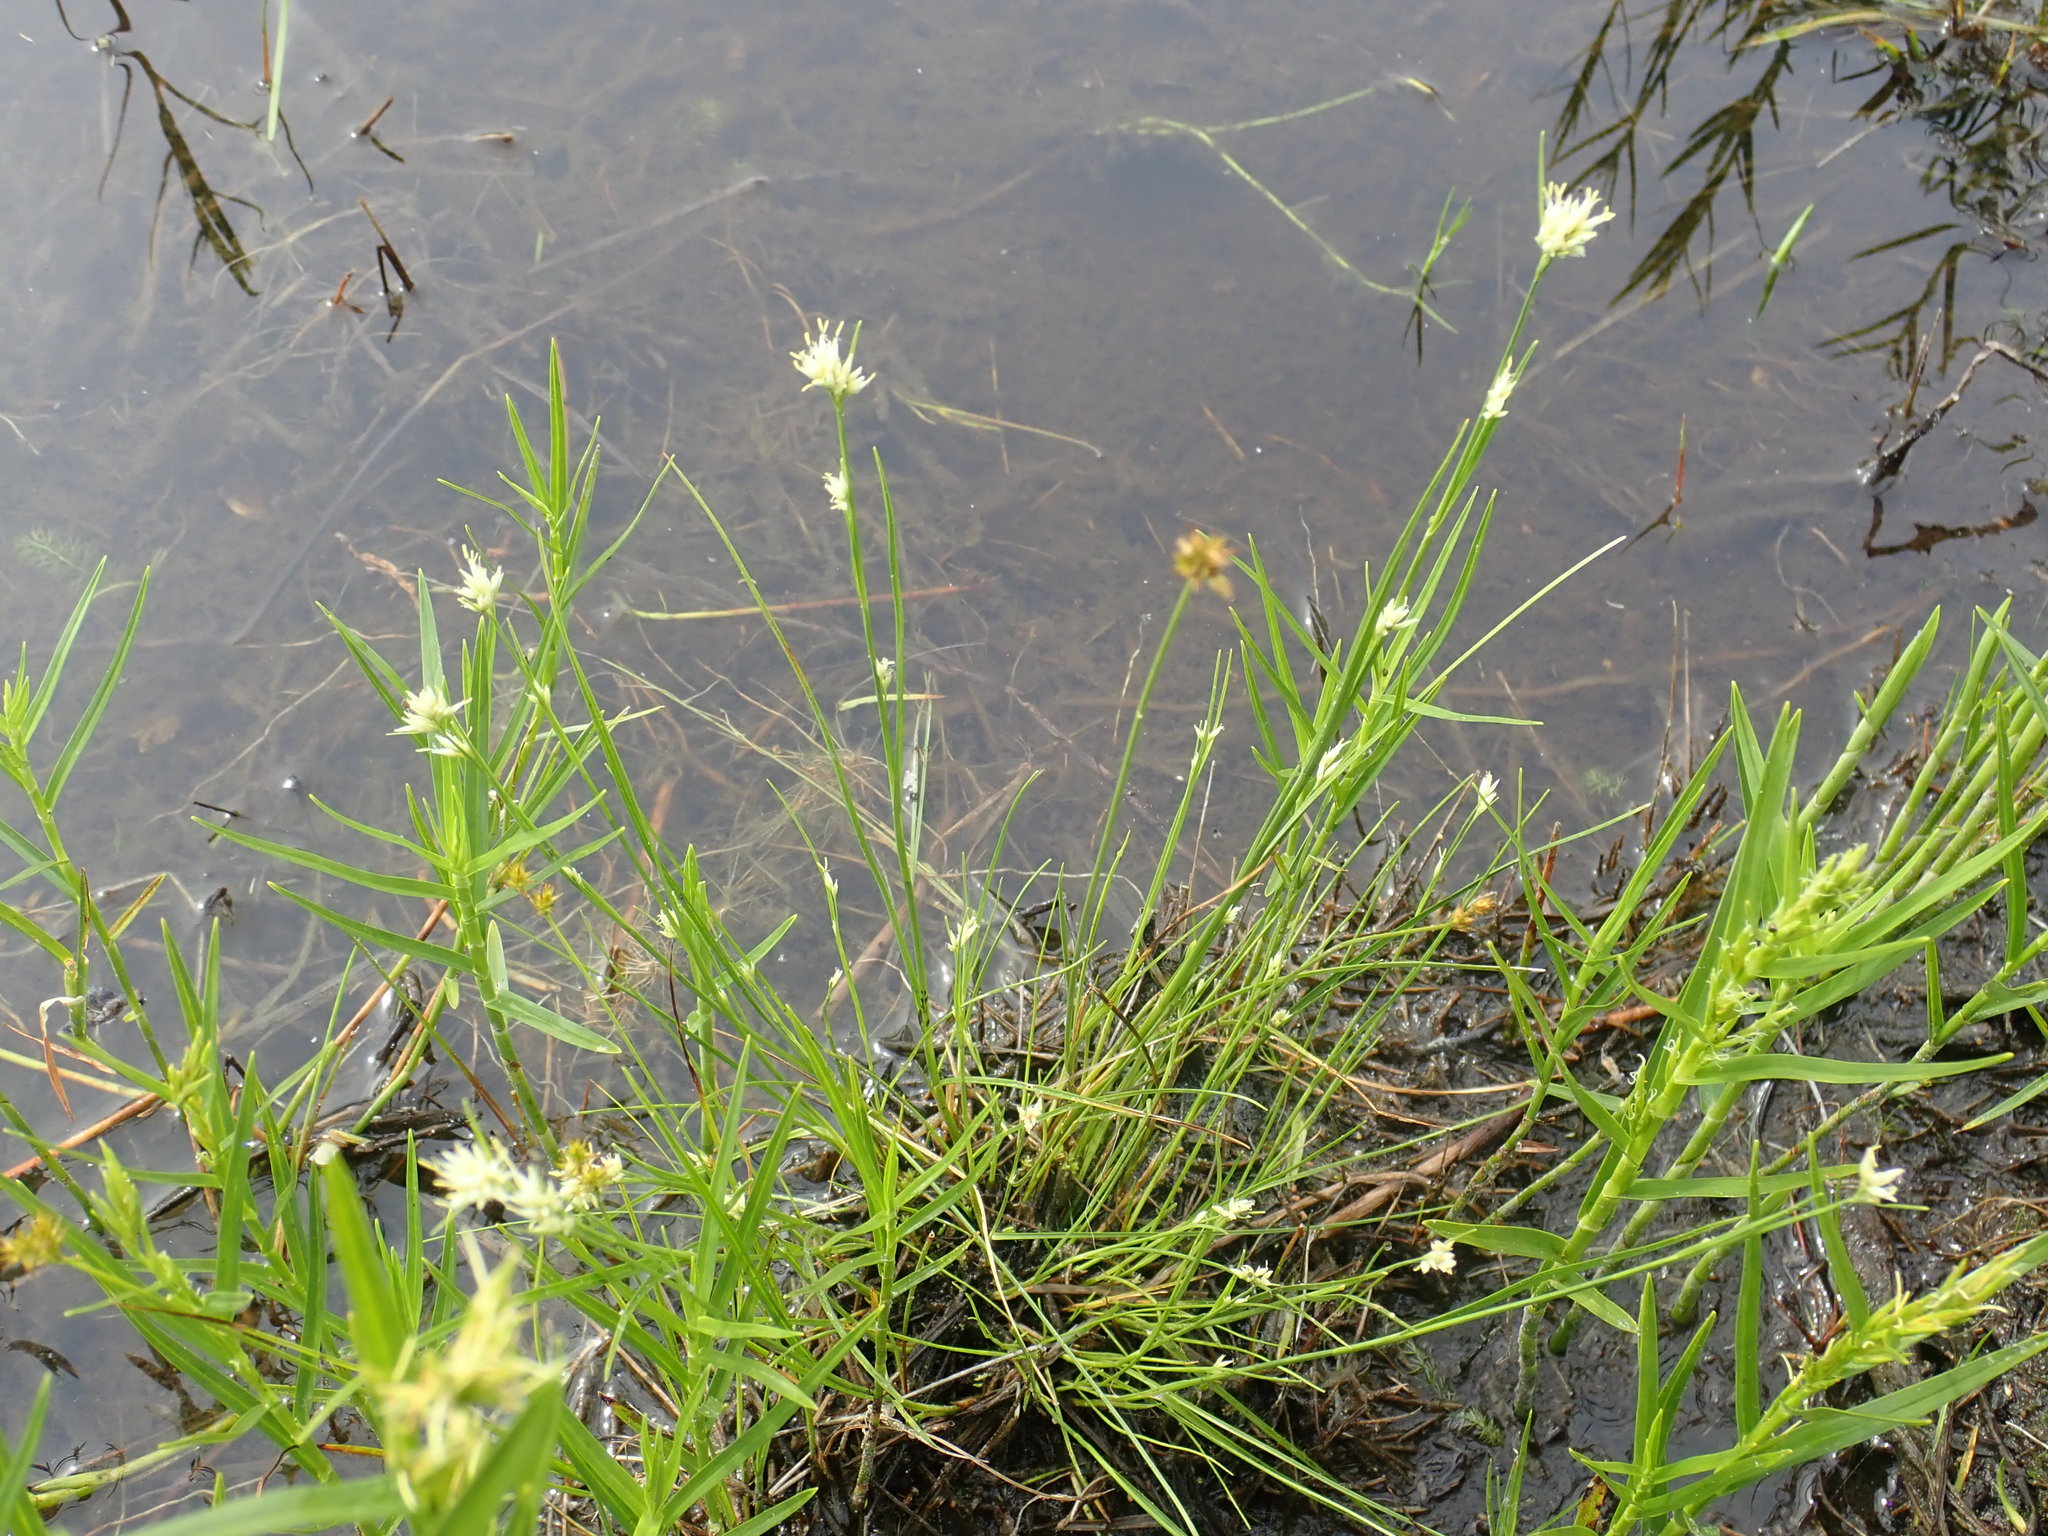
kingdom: Plantae
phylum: Tracheophyta
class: Liliopsida
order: Poales
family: Cyperaceae
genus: Rhynchospora
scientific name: Rhynchospora alba
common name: White beak-sedge
